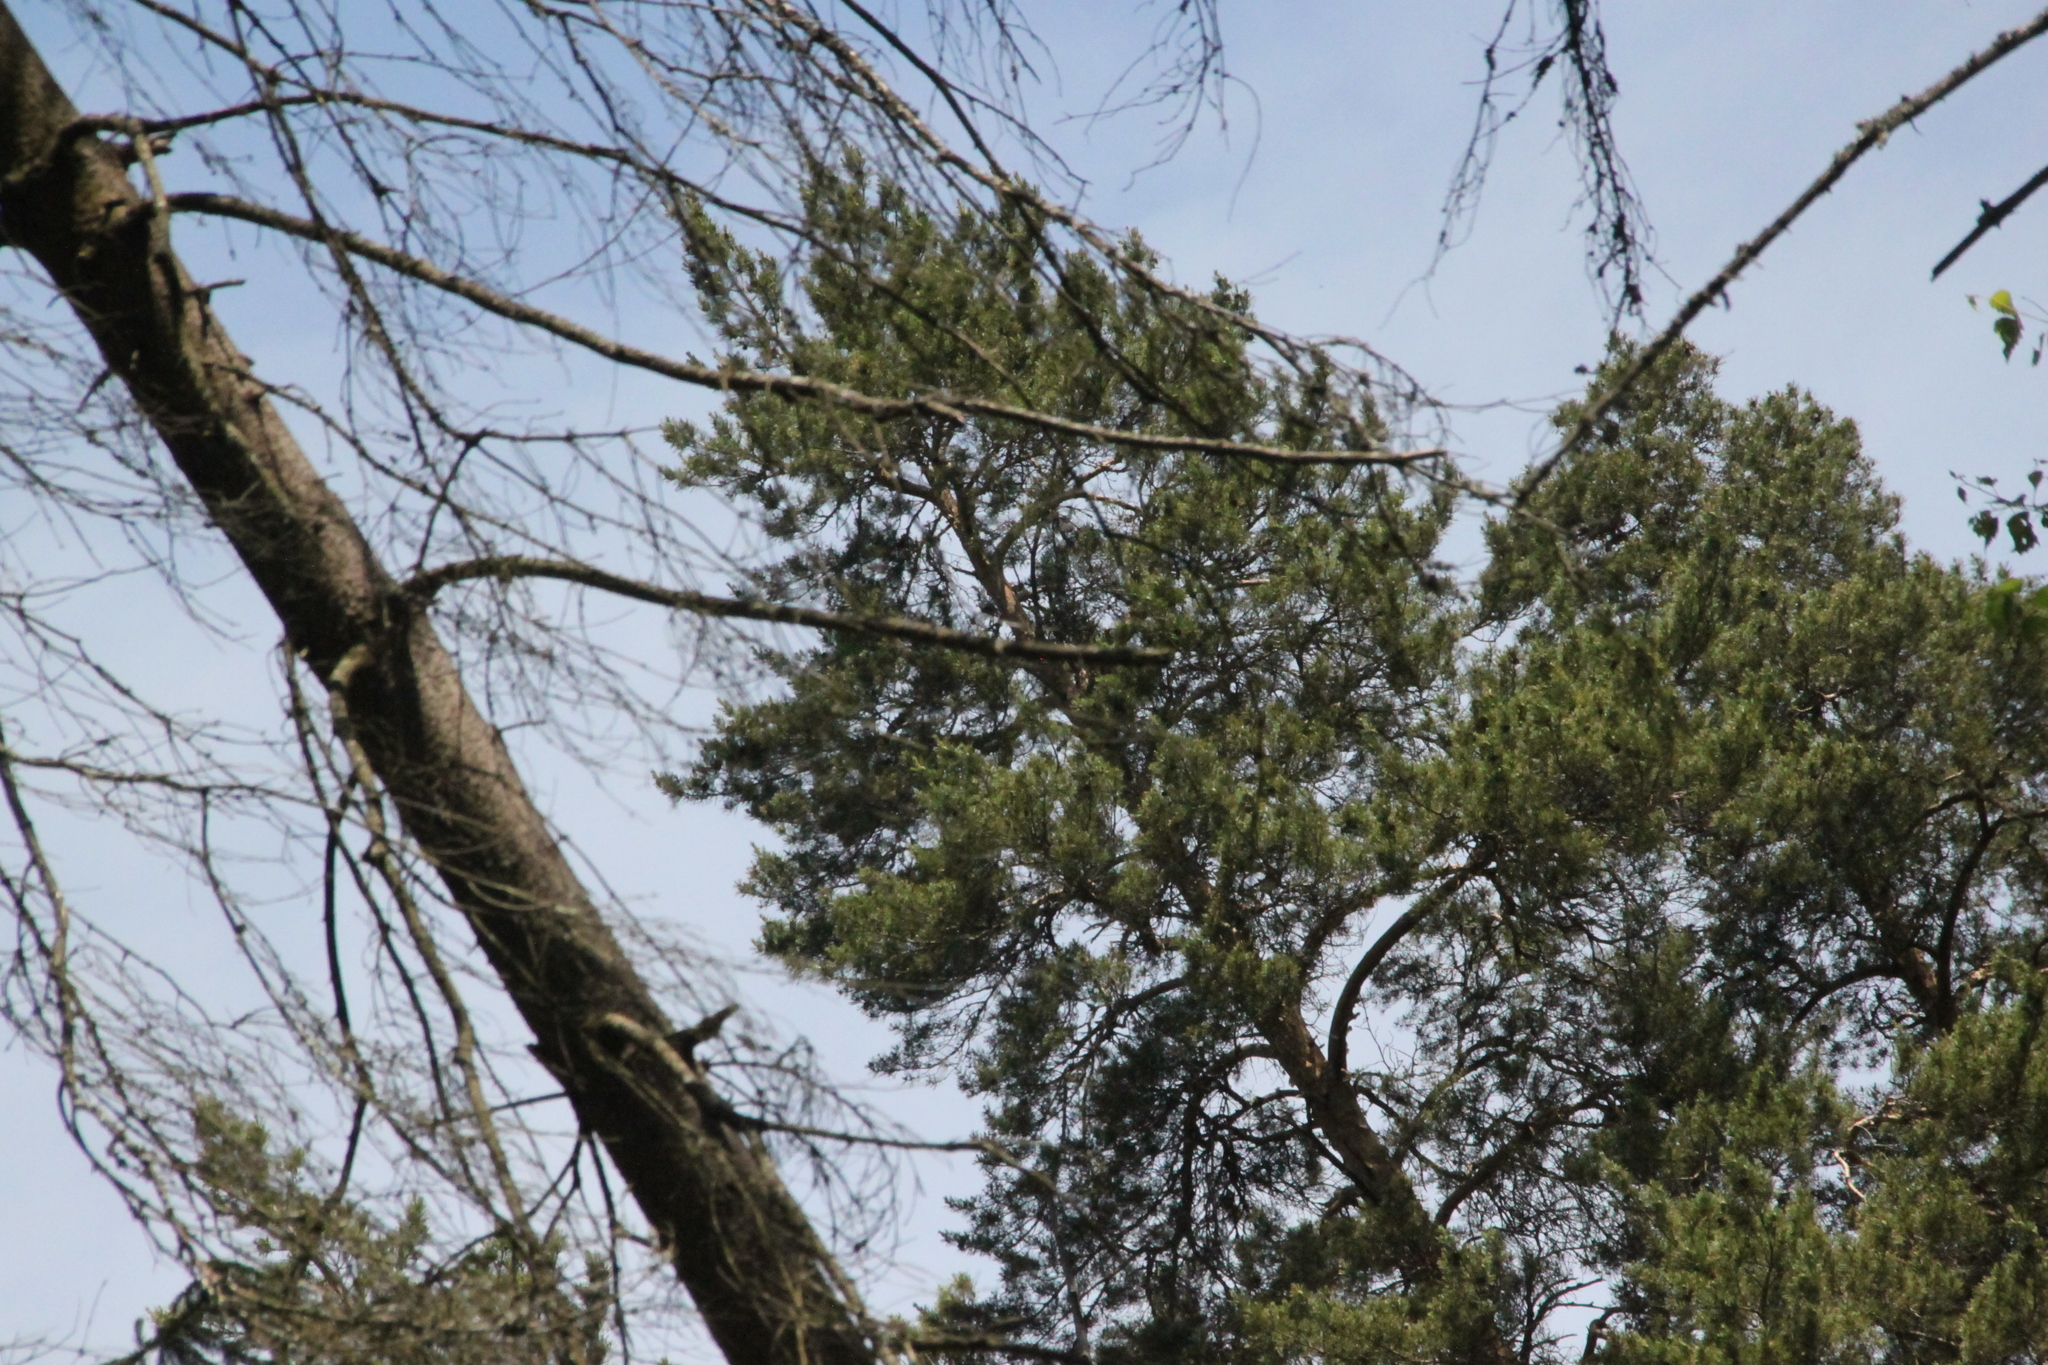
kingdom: Plantae
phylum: Tracheophyta
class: Pinopsida
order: Pinales
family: Pinaceae
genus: Pinus
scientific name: Pinus sylvestris
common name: Scots pine
